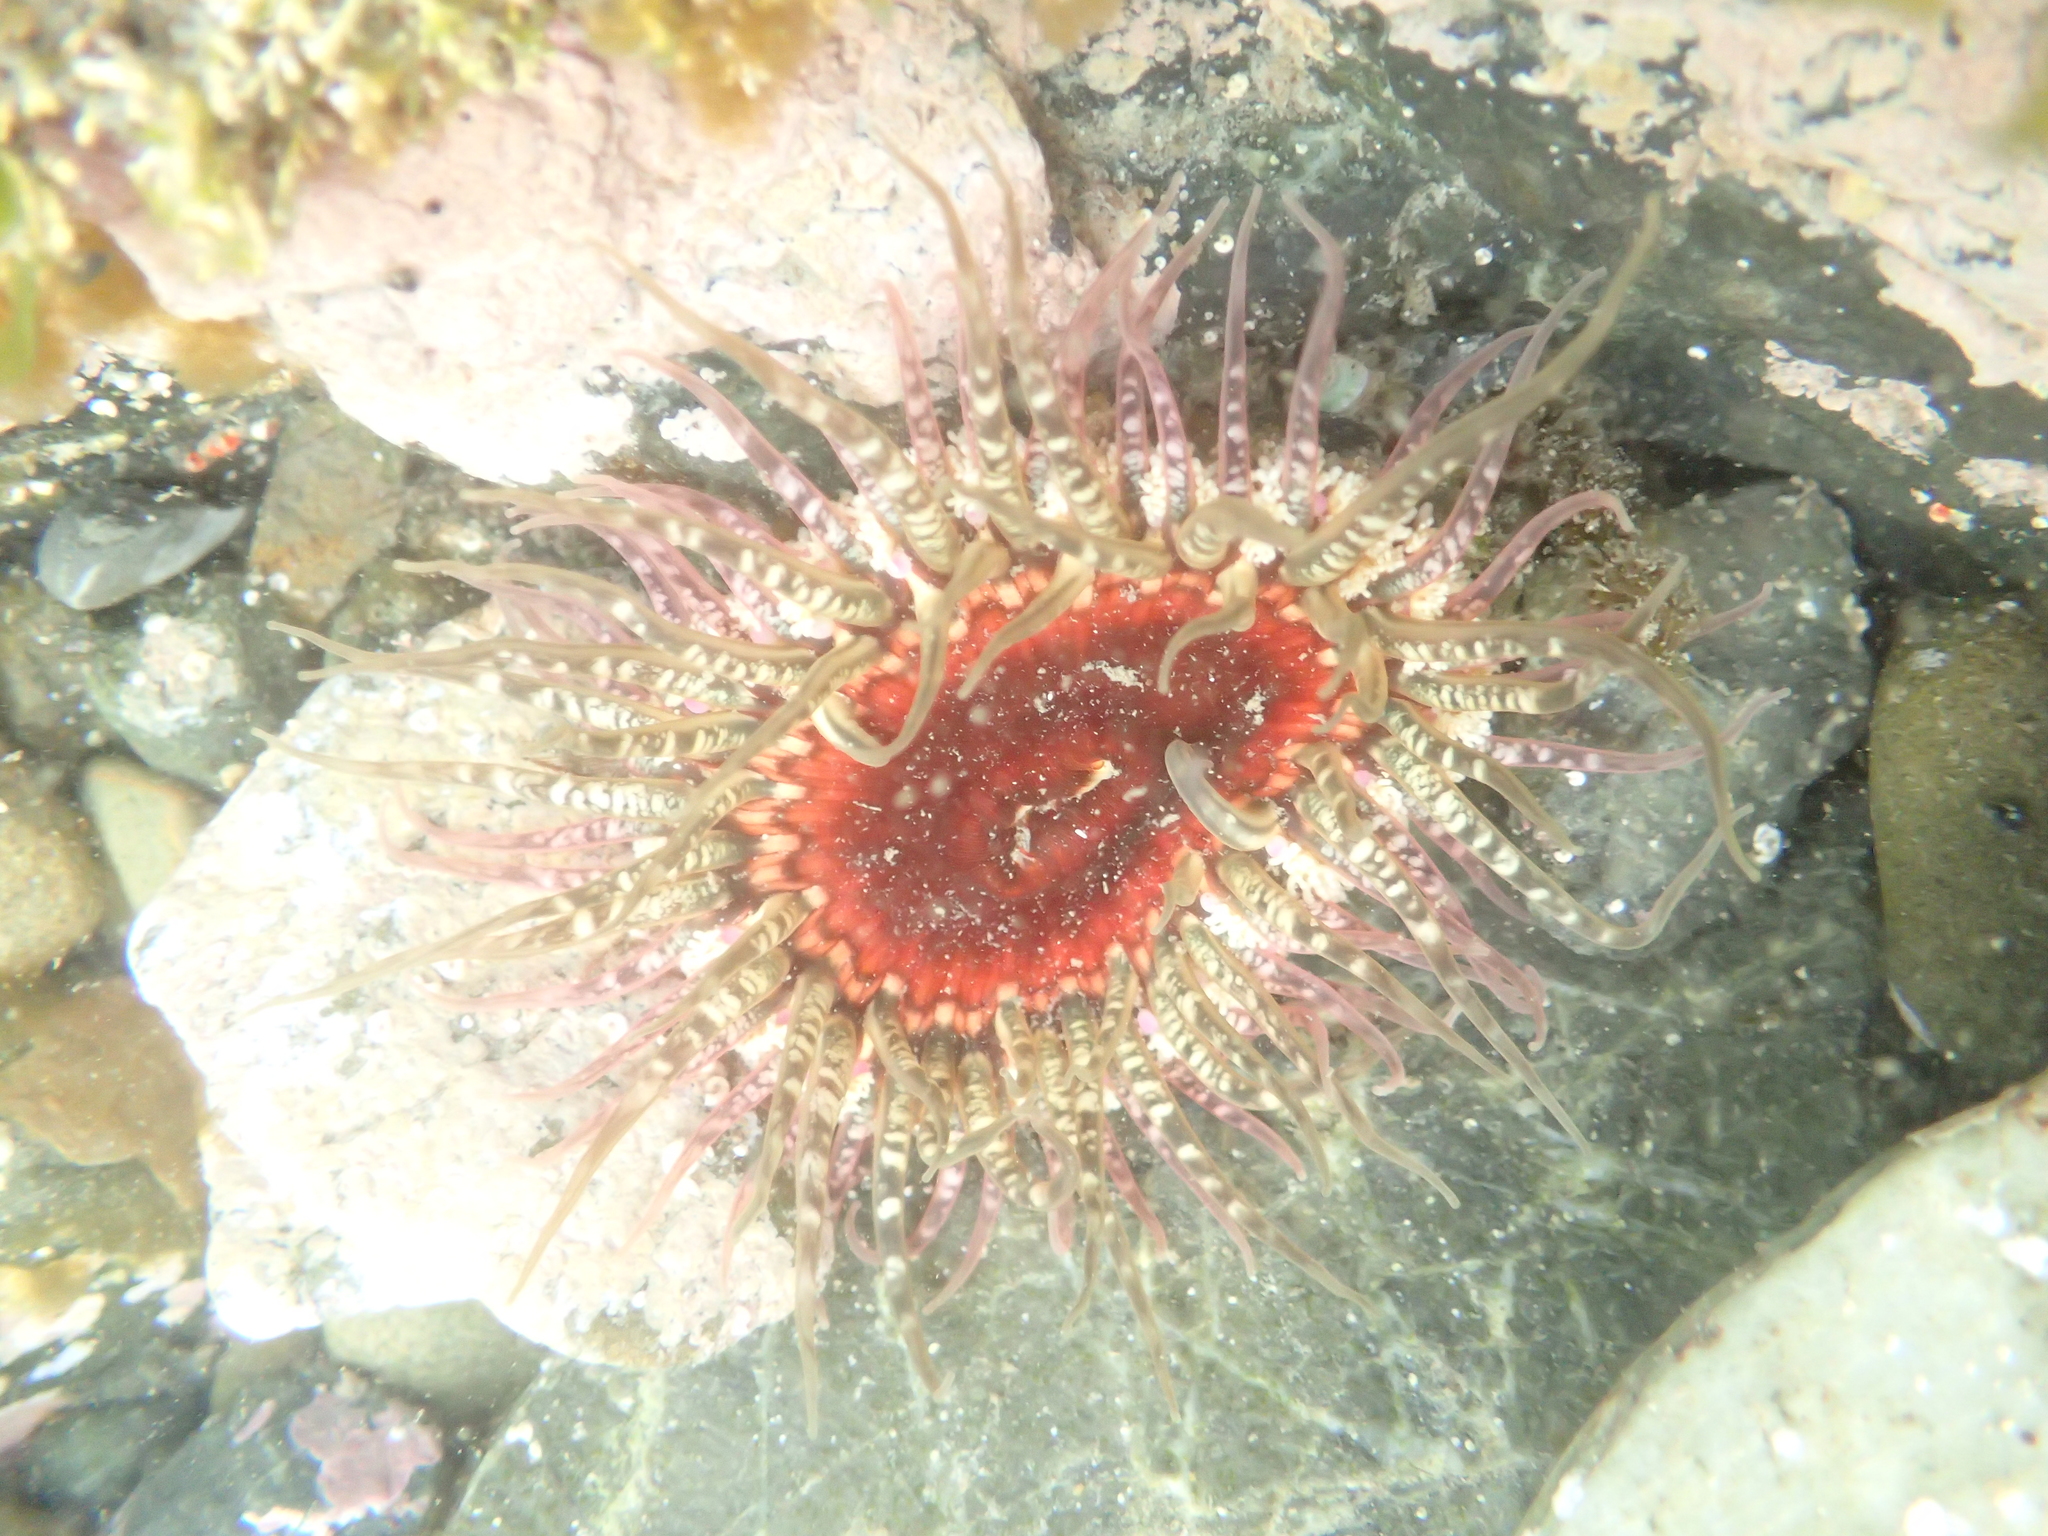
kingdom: Animalia
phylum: Cnidaria
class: Anthozoa
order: Actiniaria
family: Actiniidae
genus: Oulactis
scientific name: Oulactis muscosa
